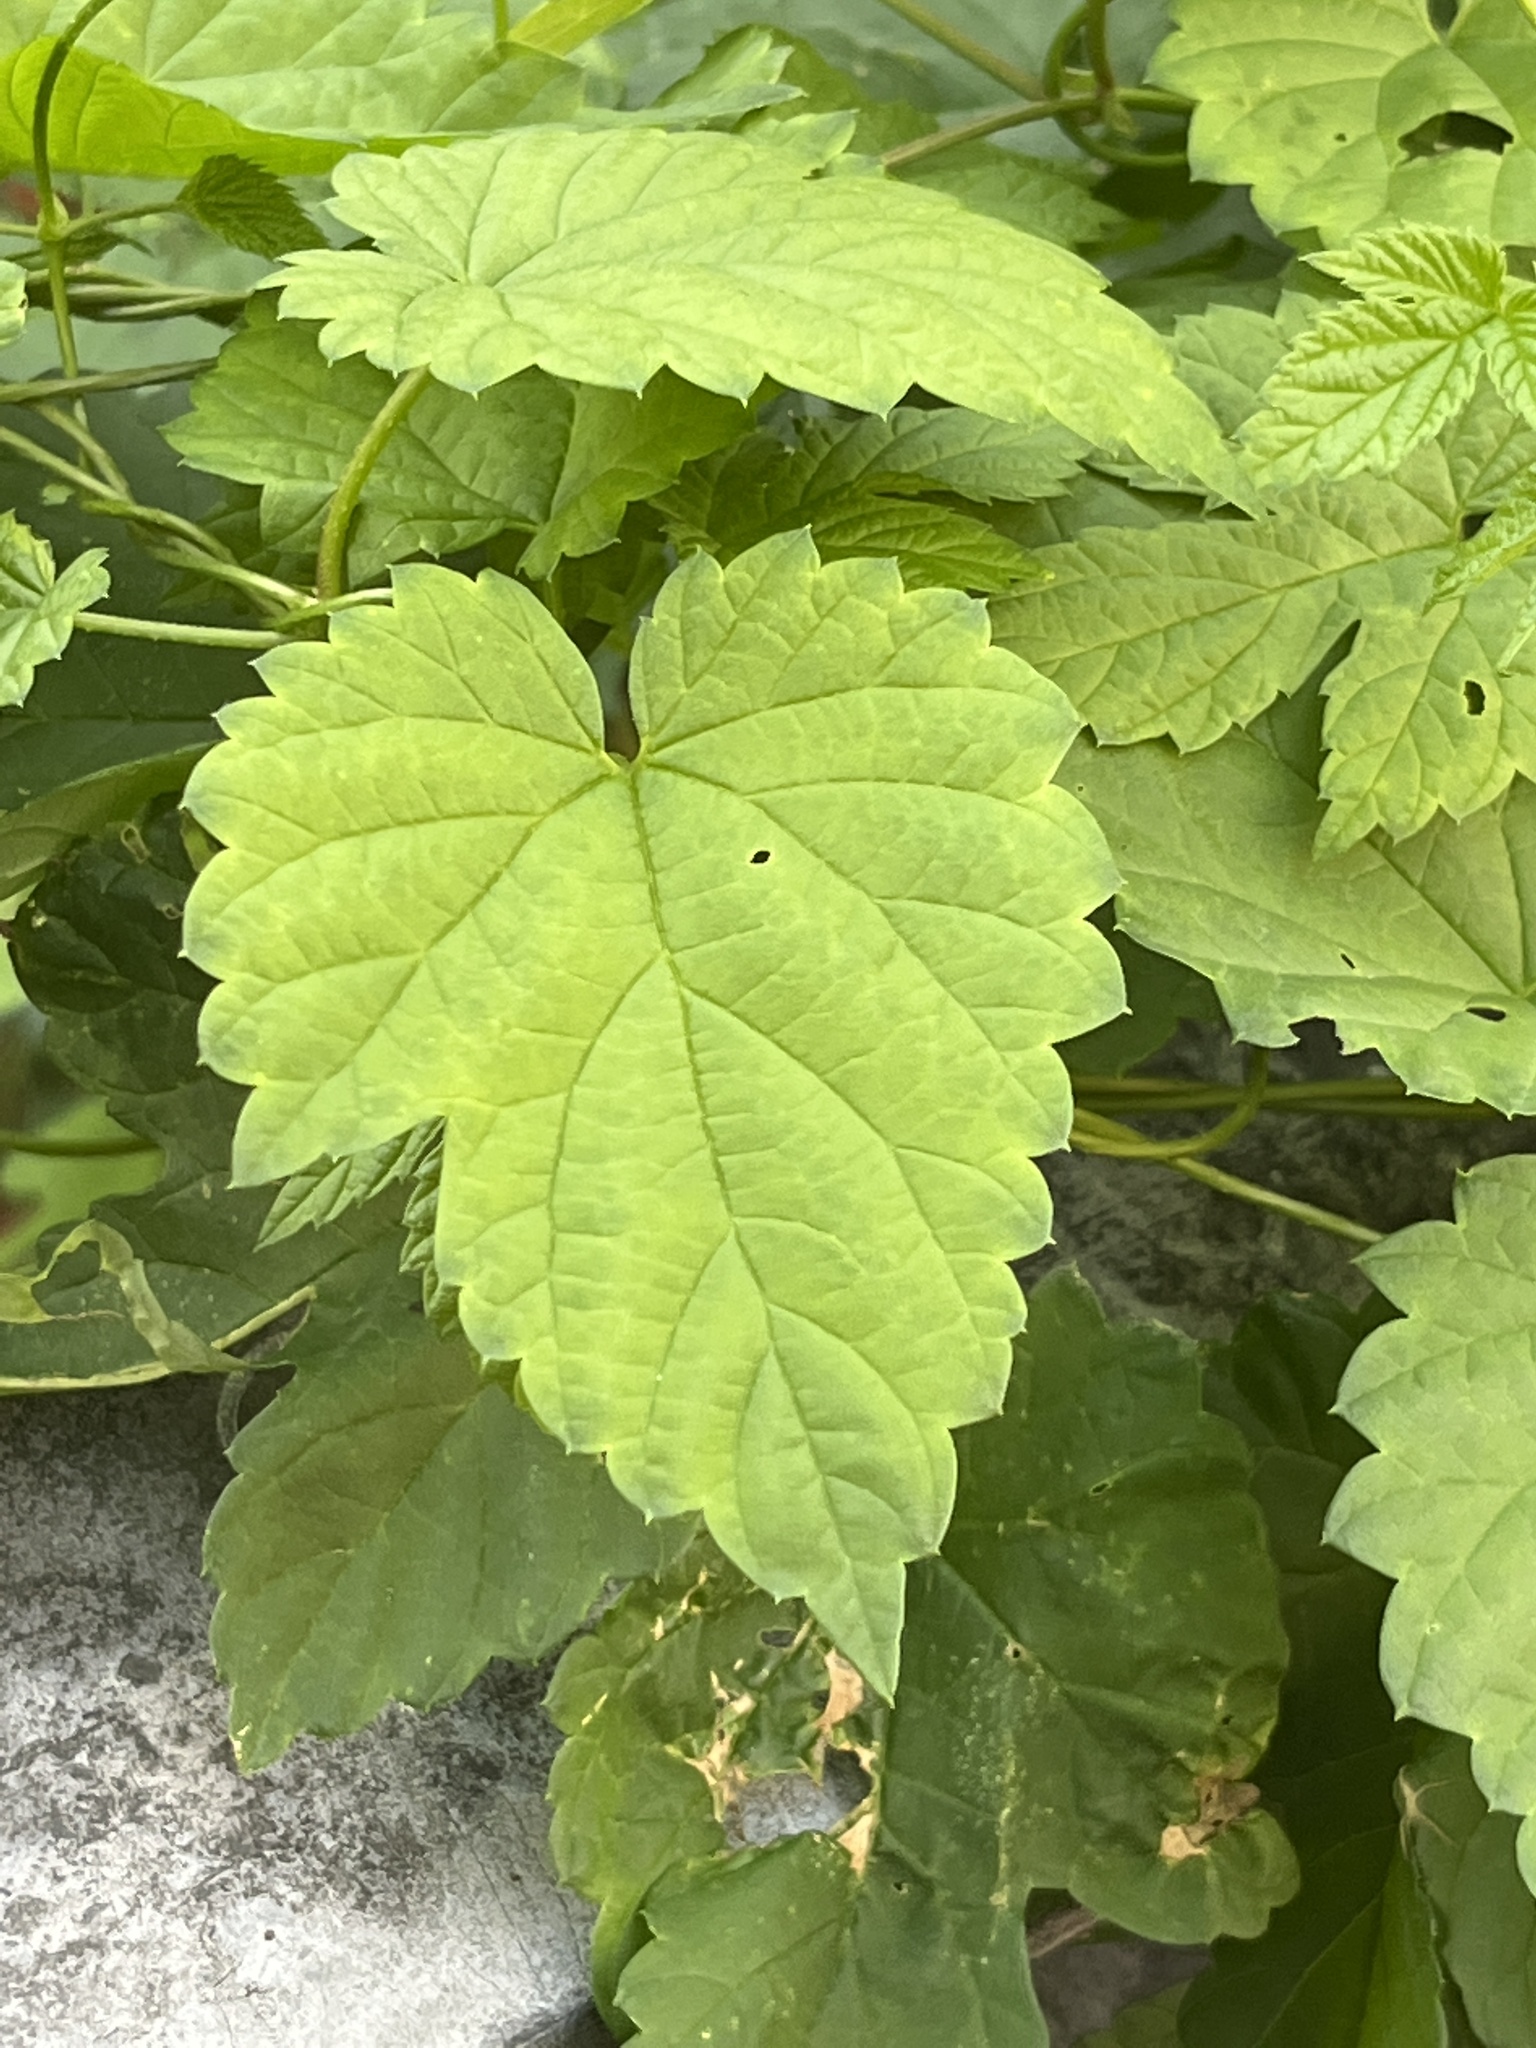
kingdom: Plantae
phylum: Tracheophyta
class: Magnoliopsida
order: Rosales
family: Cannabaceae
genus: Humulus
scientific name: Humulus lupulus
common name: Hop
